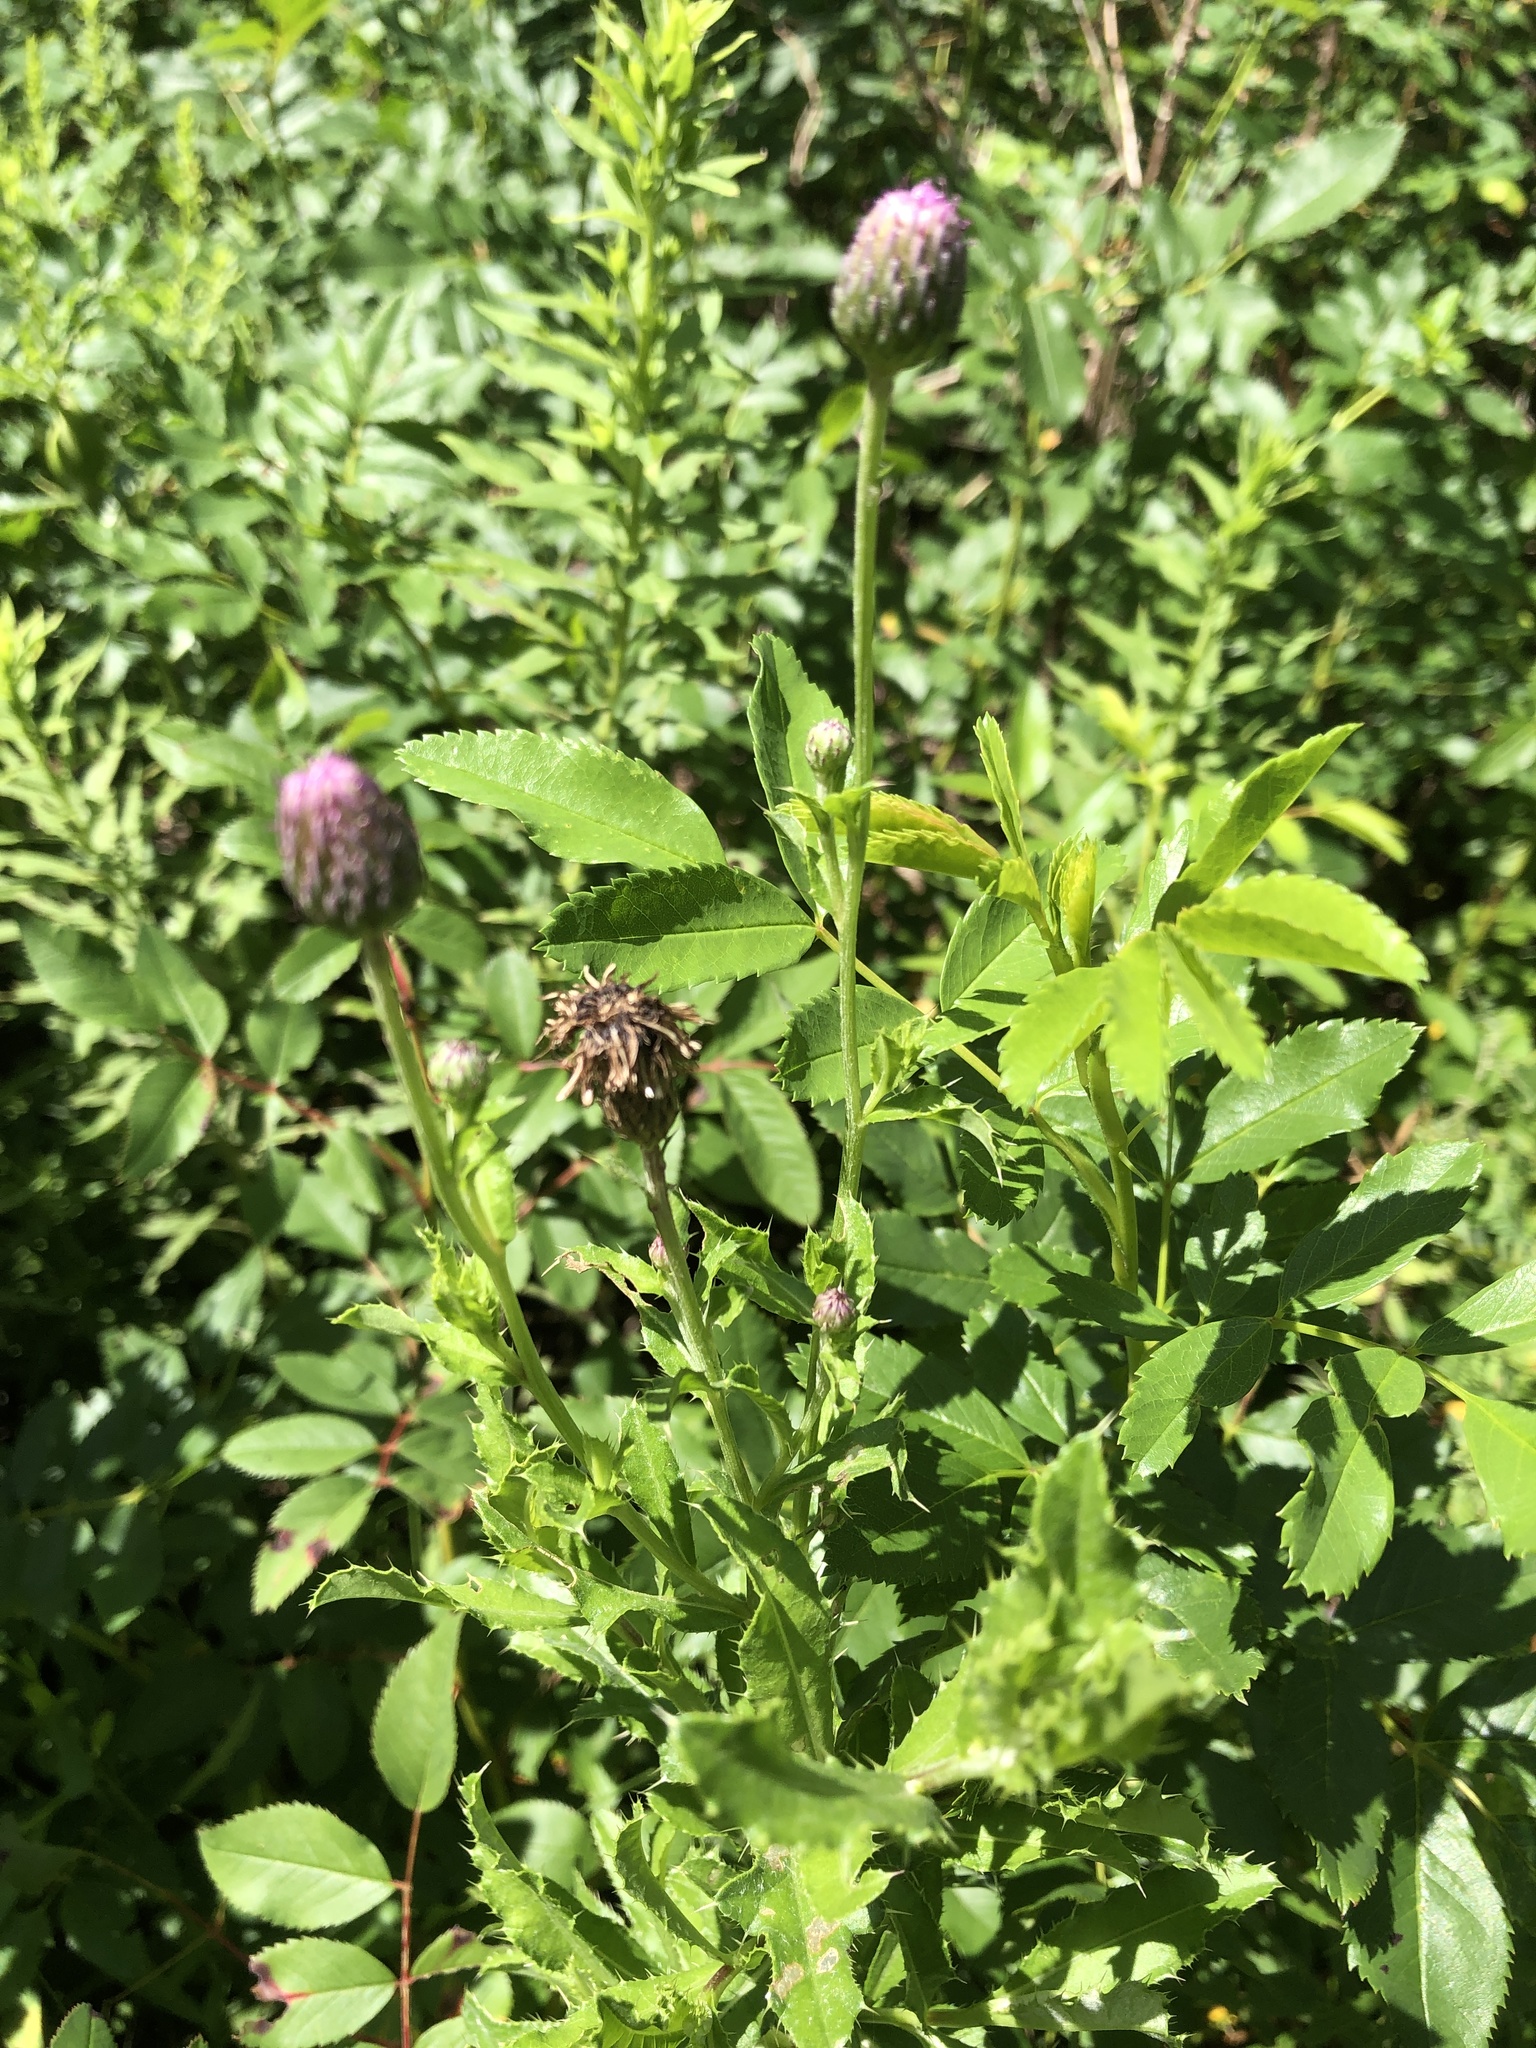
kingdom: Plantae
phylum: Tracheophyta
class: Magnoliopsida
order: Asterales
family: Asteraceae
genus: Cirsium
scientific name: Cirsium arvense
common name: Creeping thistle
